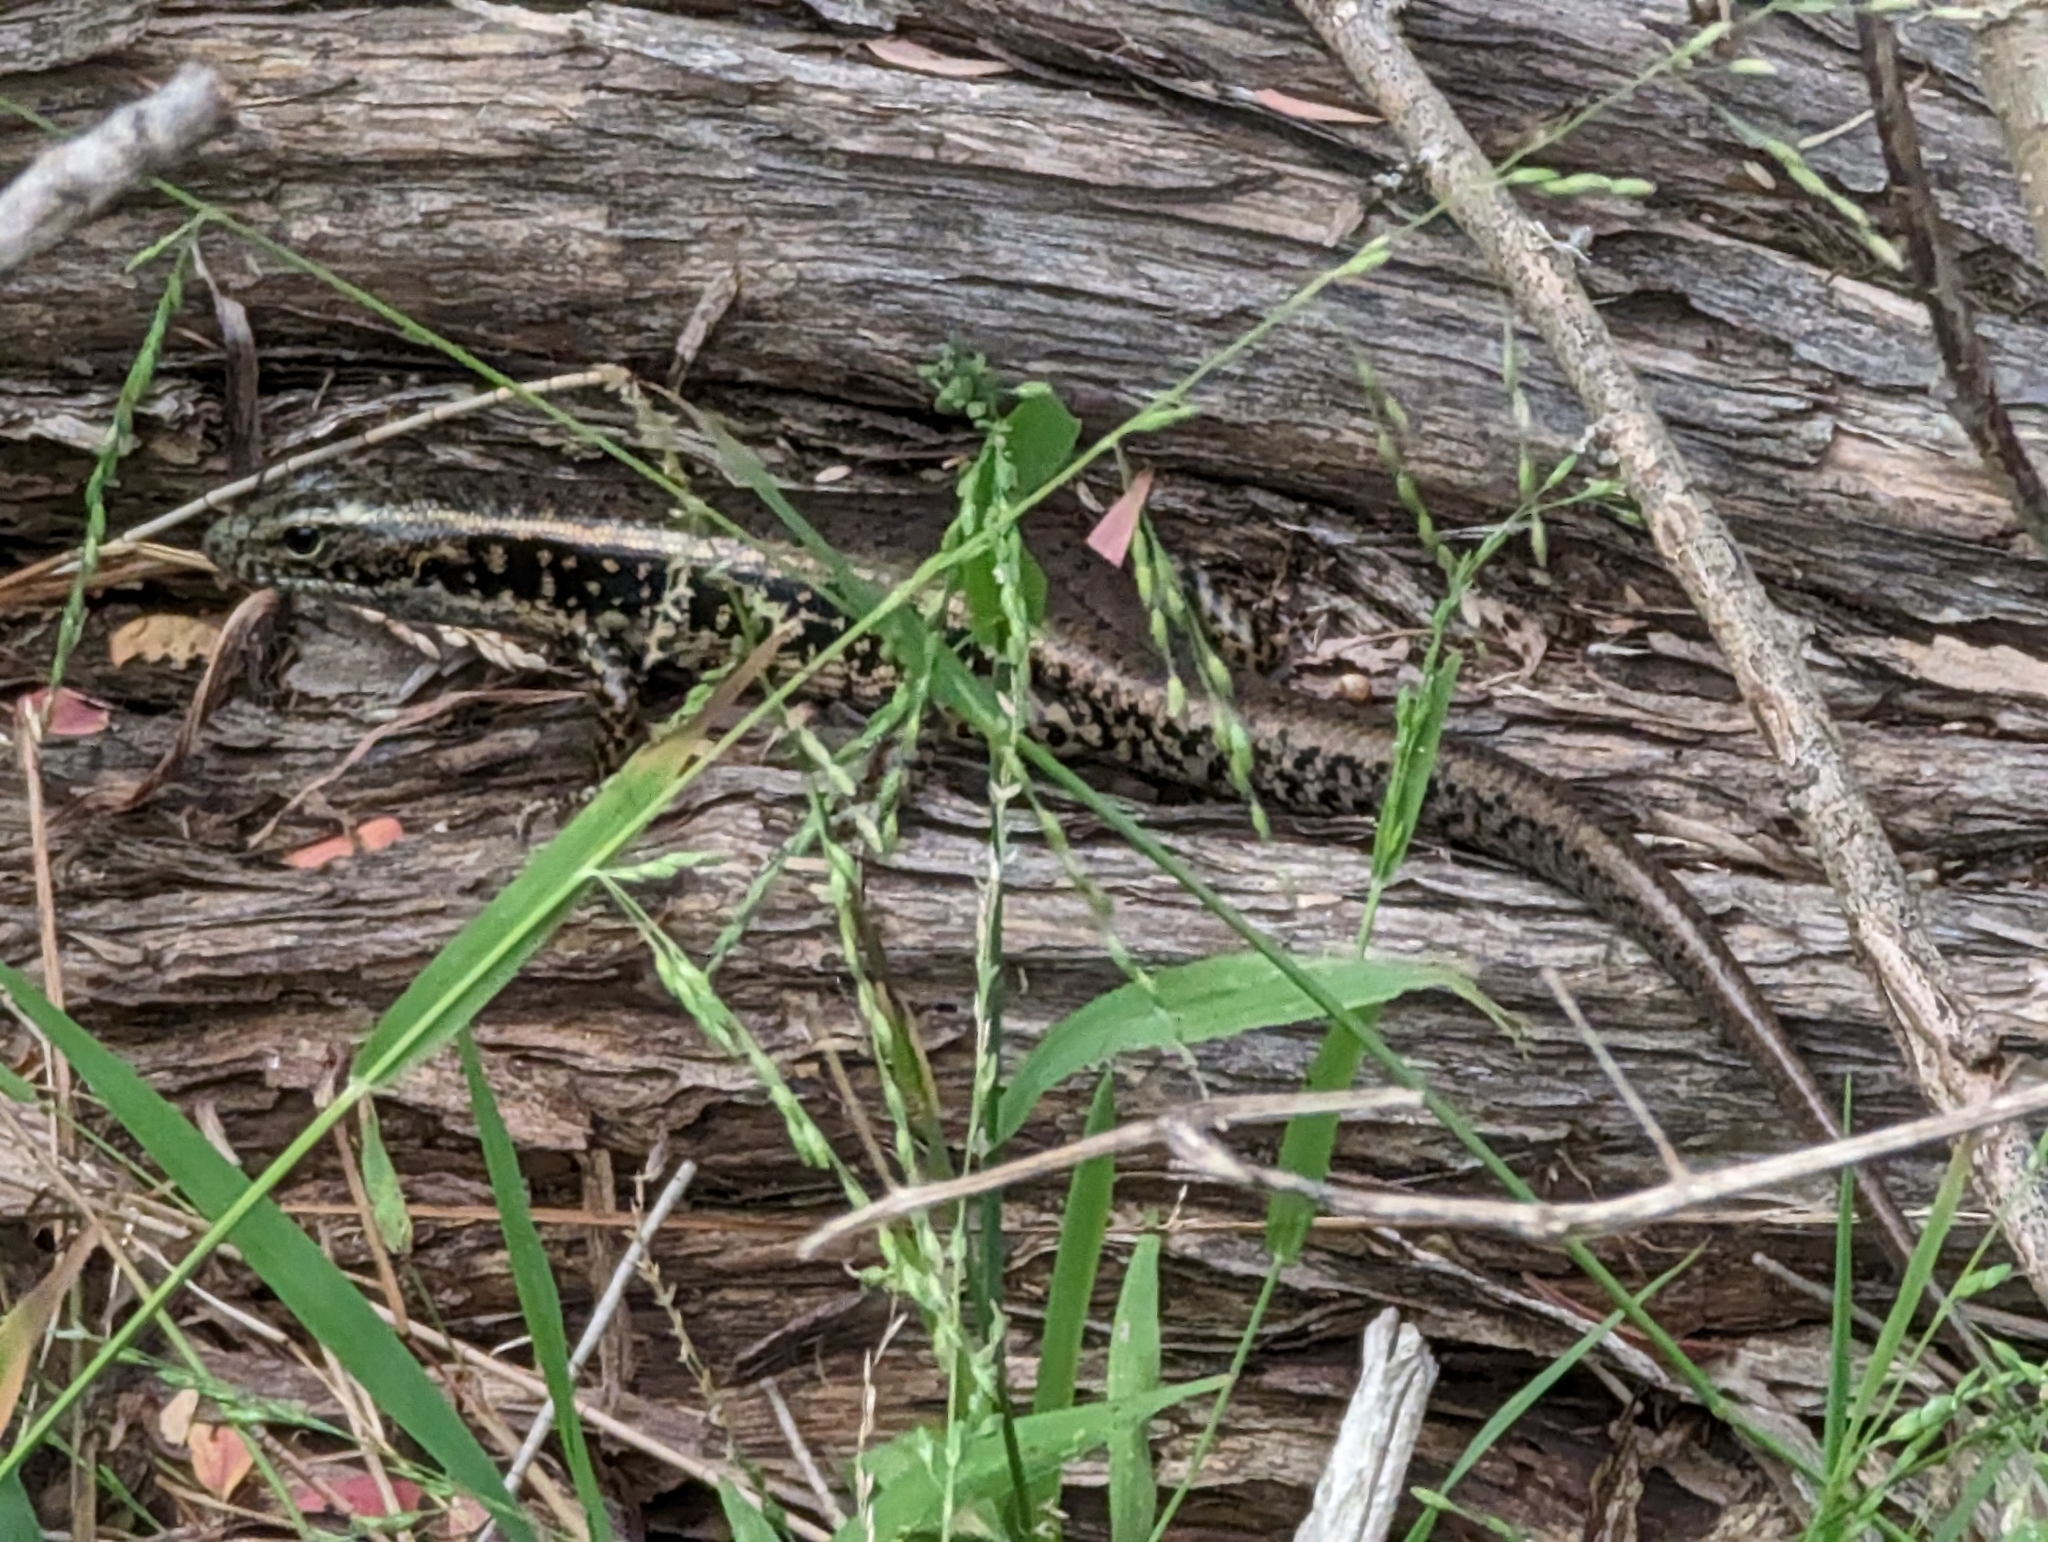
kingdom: Animalia
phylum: Chordata
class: Squamata
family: Scincidae
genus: Eulamprus
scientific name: Eulamprus quoyii
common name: Eastern water skink
